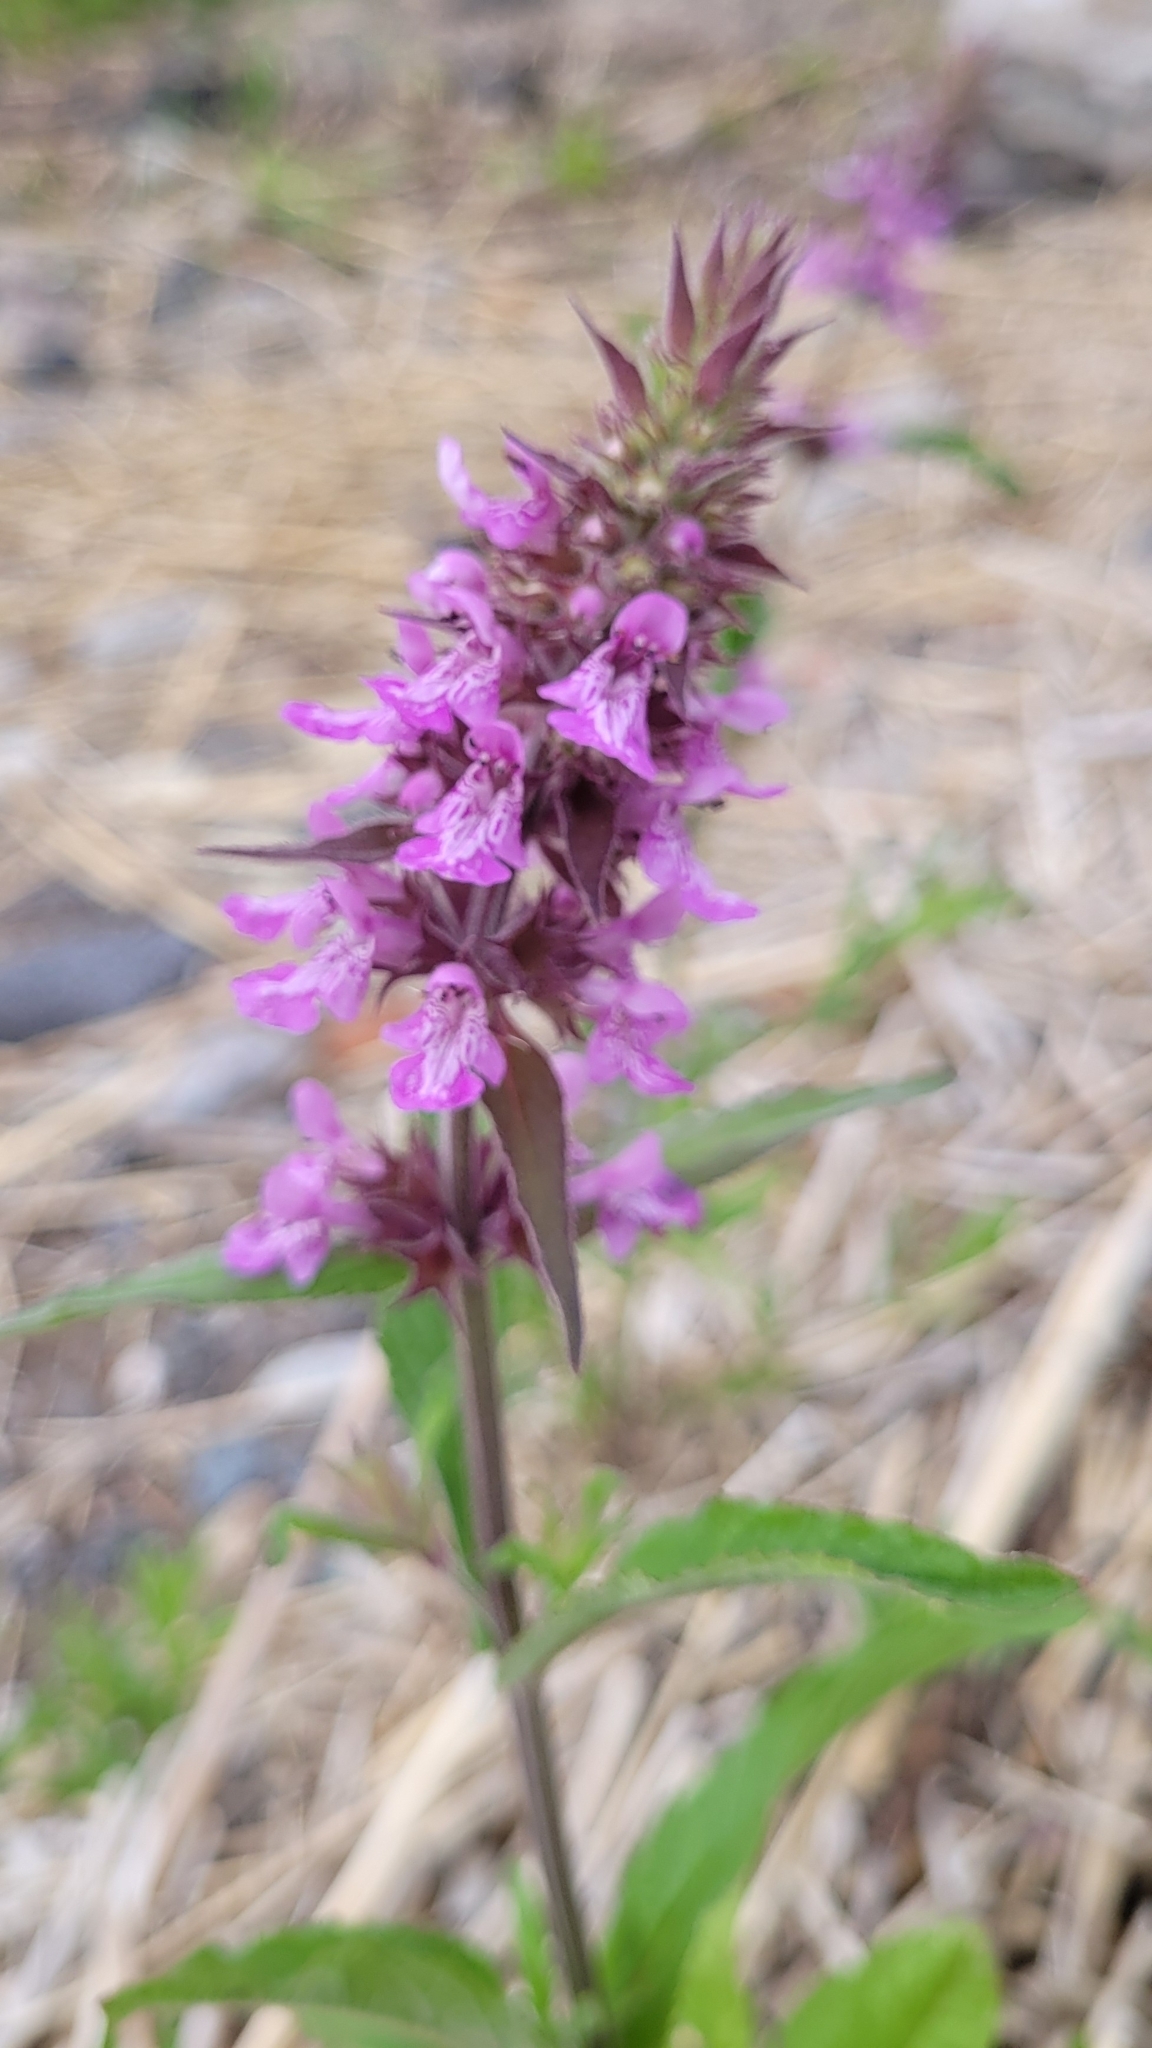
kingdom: Plantae
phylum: Tracheophyta
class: Magnoliopsida
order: Lamiales
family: Lamiaceae
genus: Stachys
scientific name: Stachys palustris
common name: Marsh woundwort
